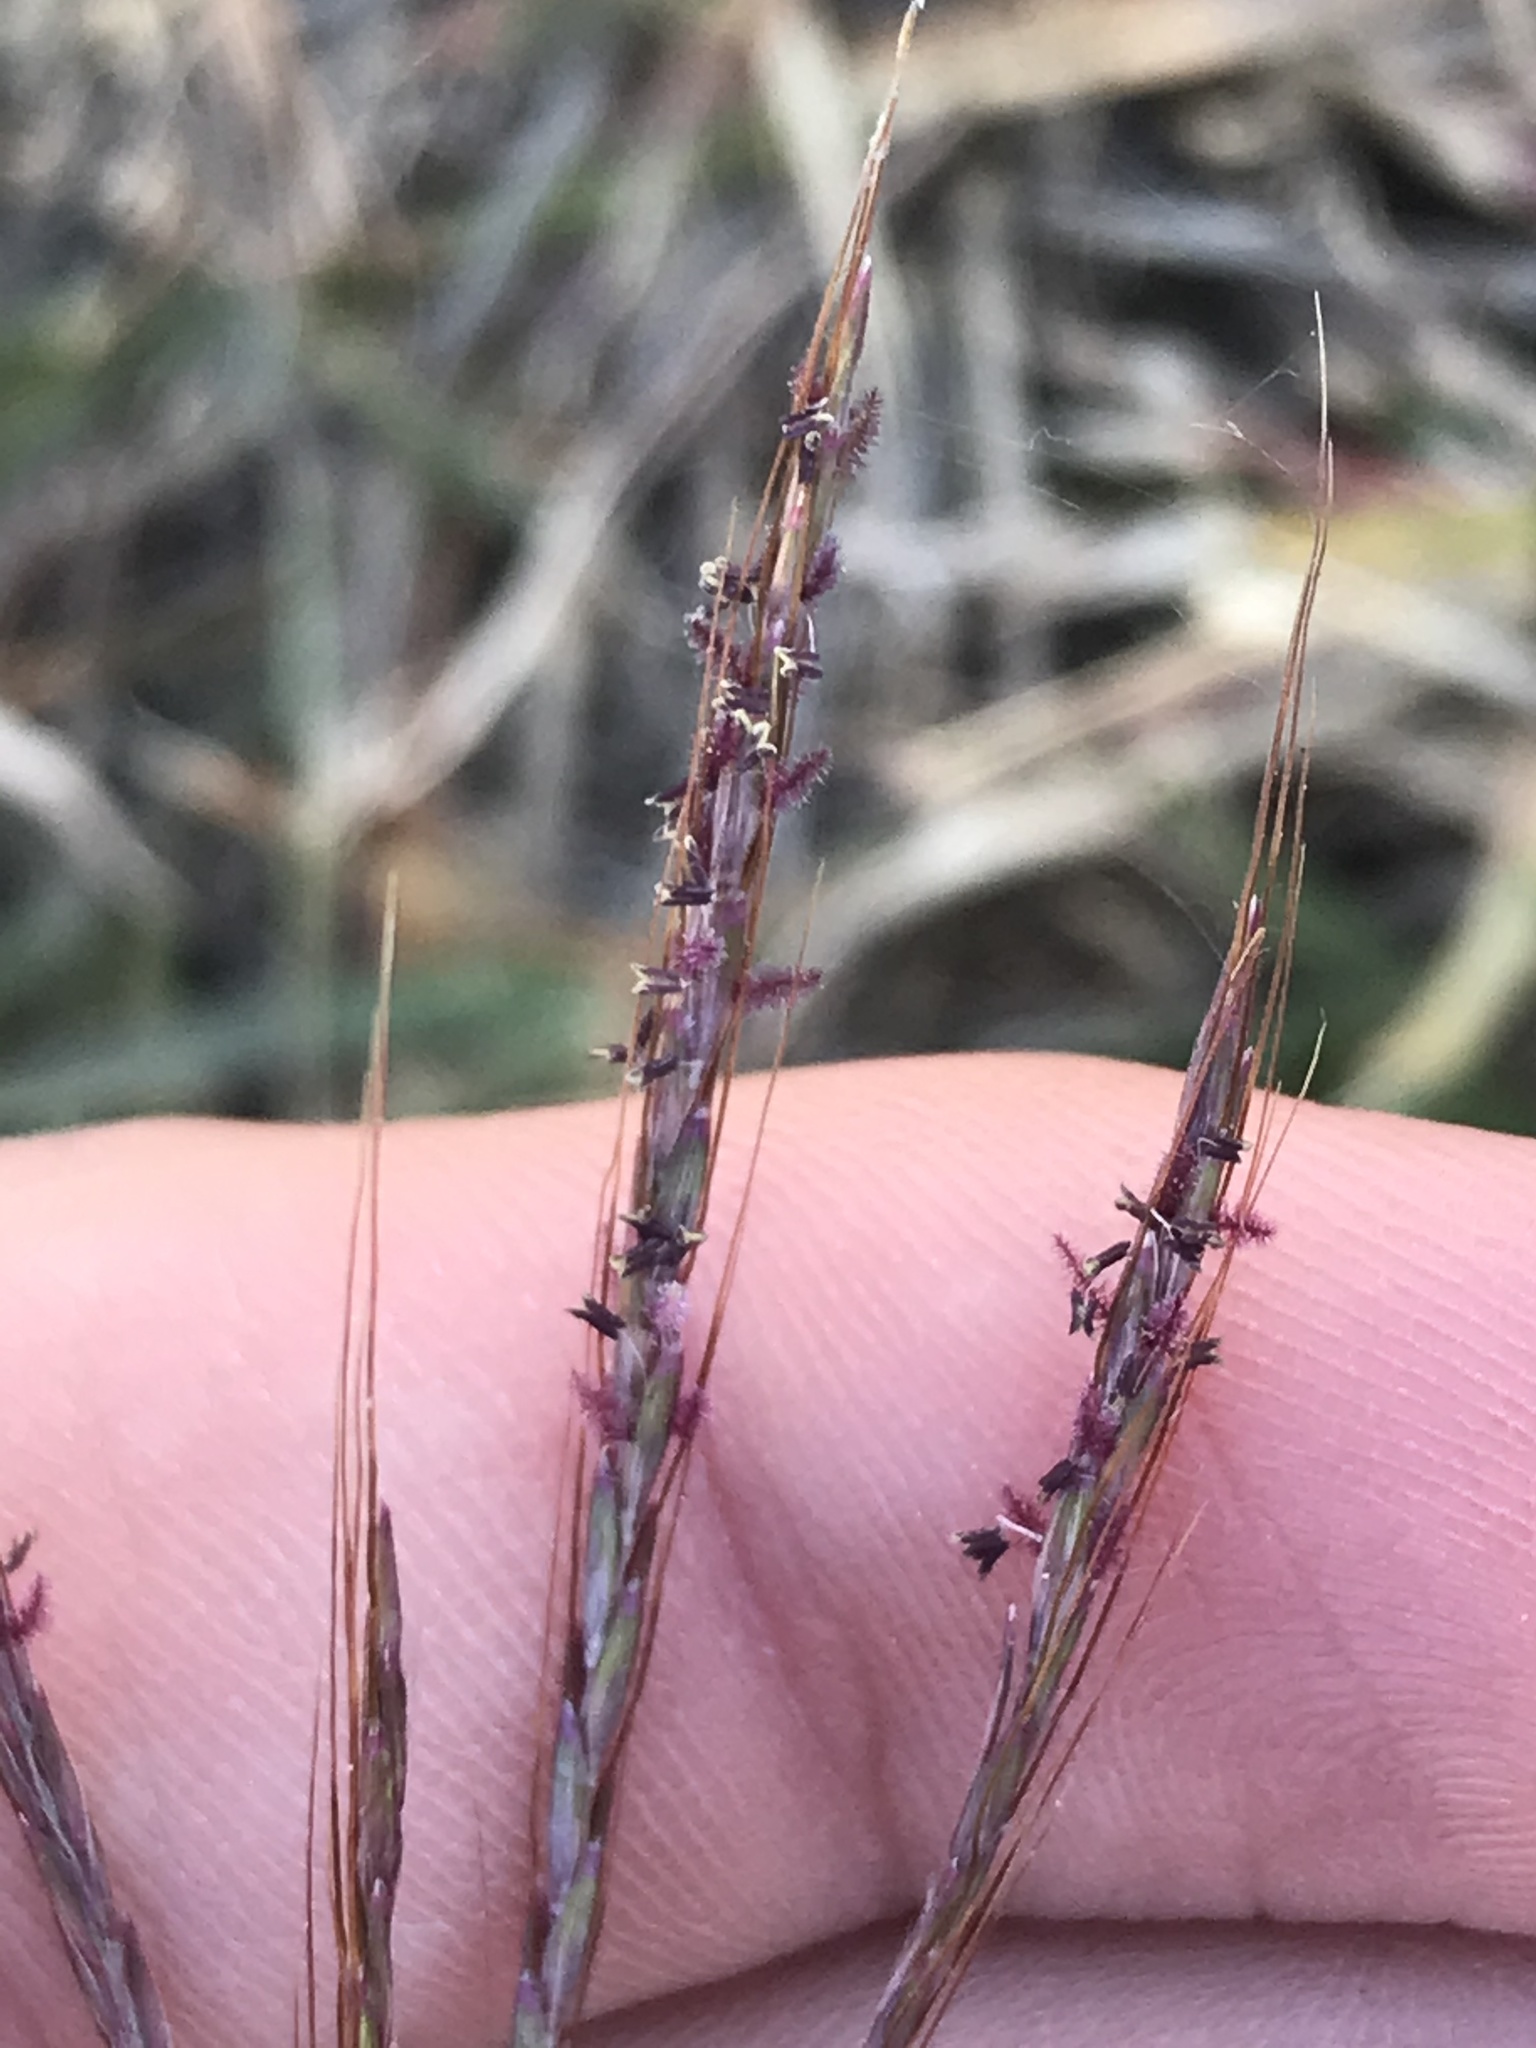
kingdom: Plantae
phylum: Tracheophyta
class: Liliopsida
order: Poales
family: Poaceae
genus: Bothriochloa
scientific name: Bothriochloa ischaemum
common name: Yellow bluestem
